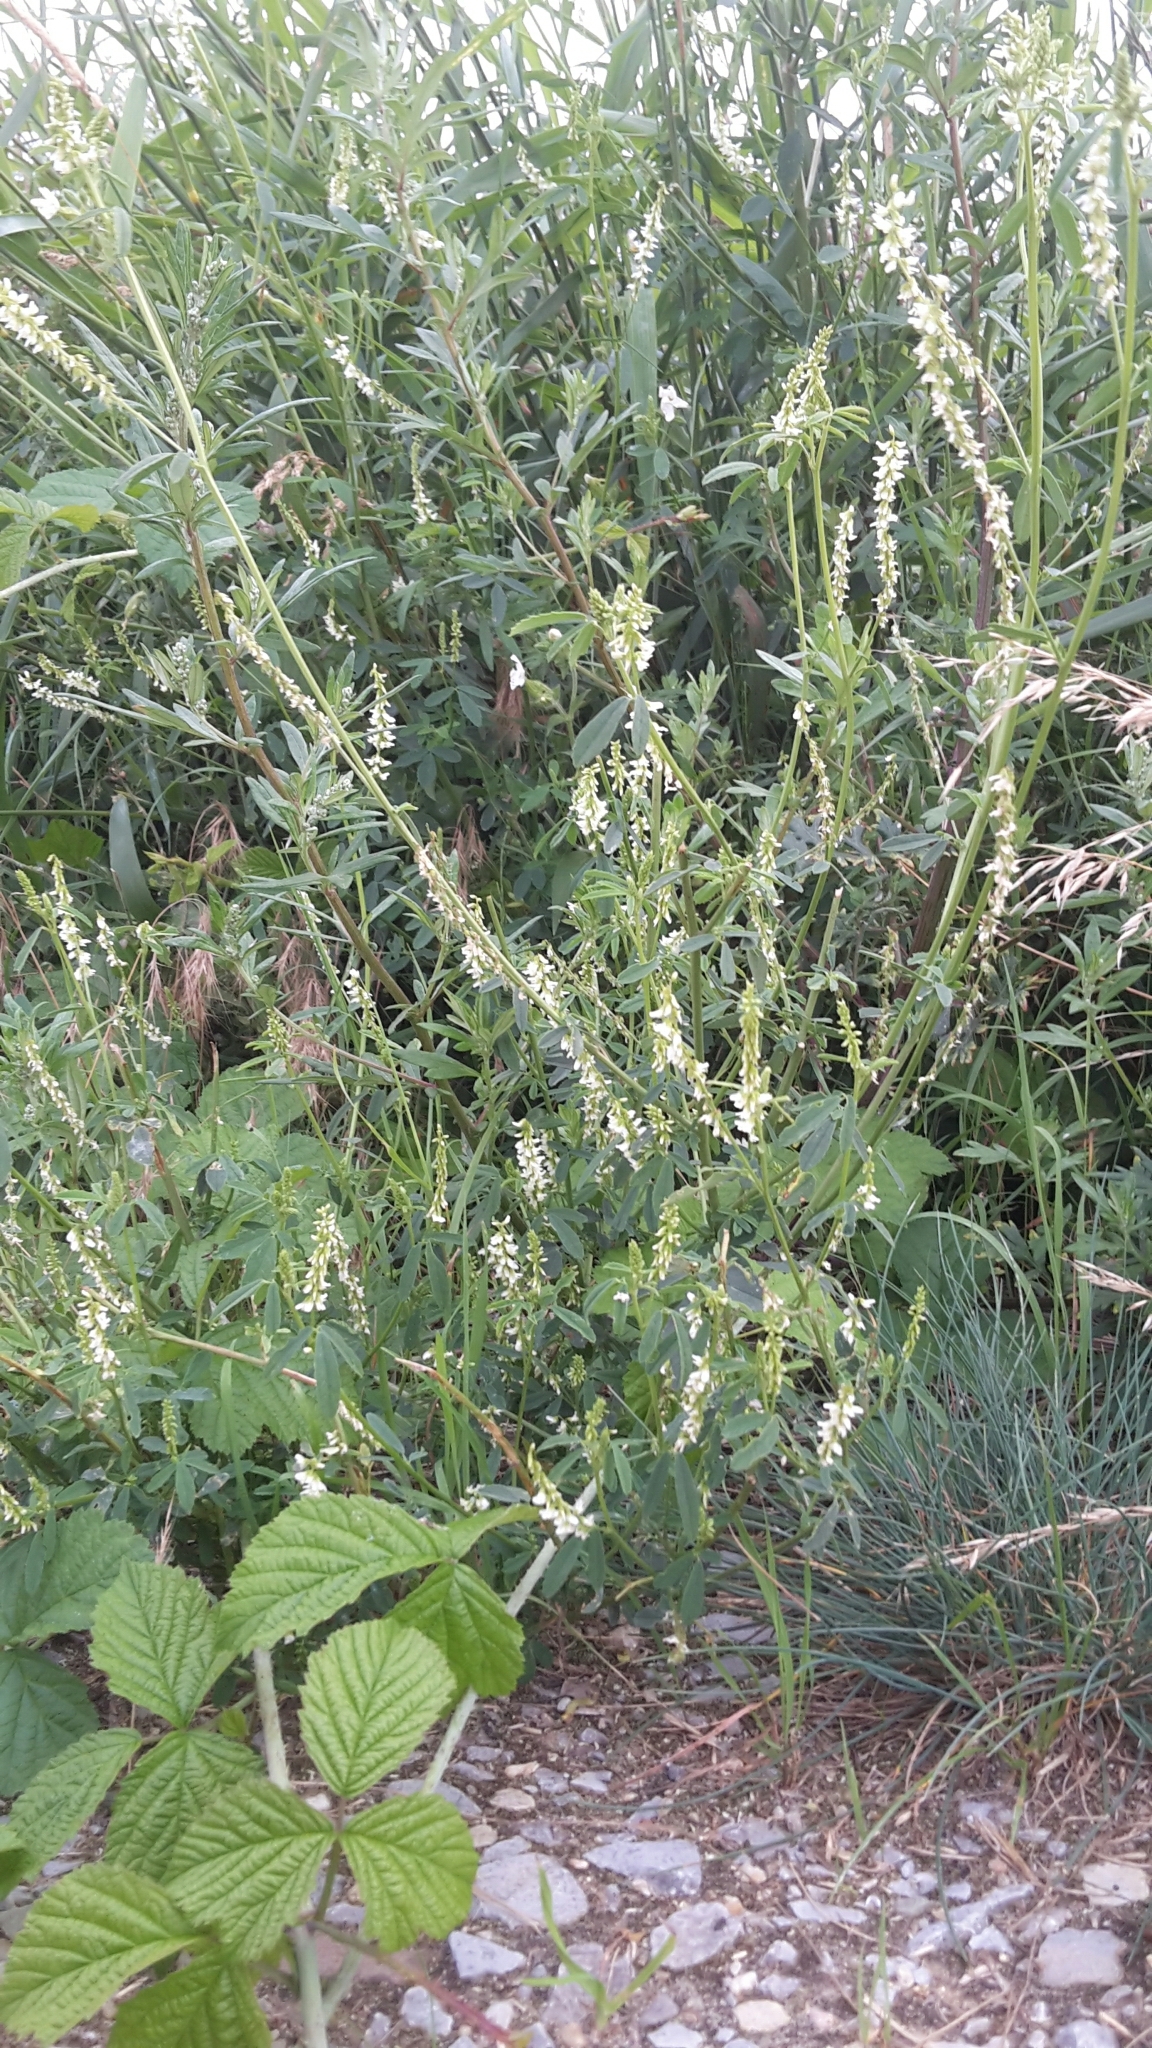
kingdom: Plantae
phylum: Tracheophyta
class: Magnoliopsida
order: Fabales
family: Fabaceae
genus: Melilotus
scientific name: Melilotus albus
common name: White melilot
